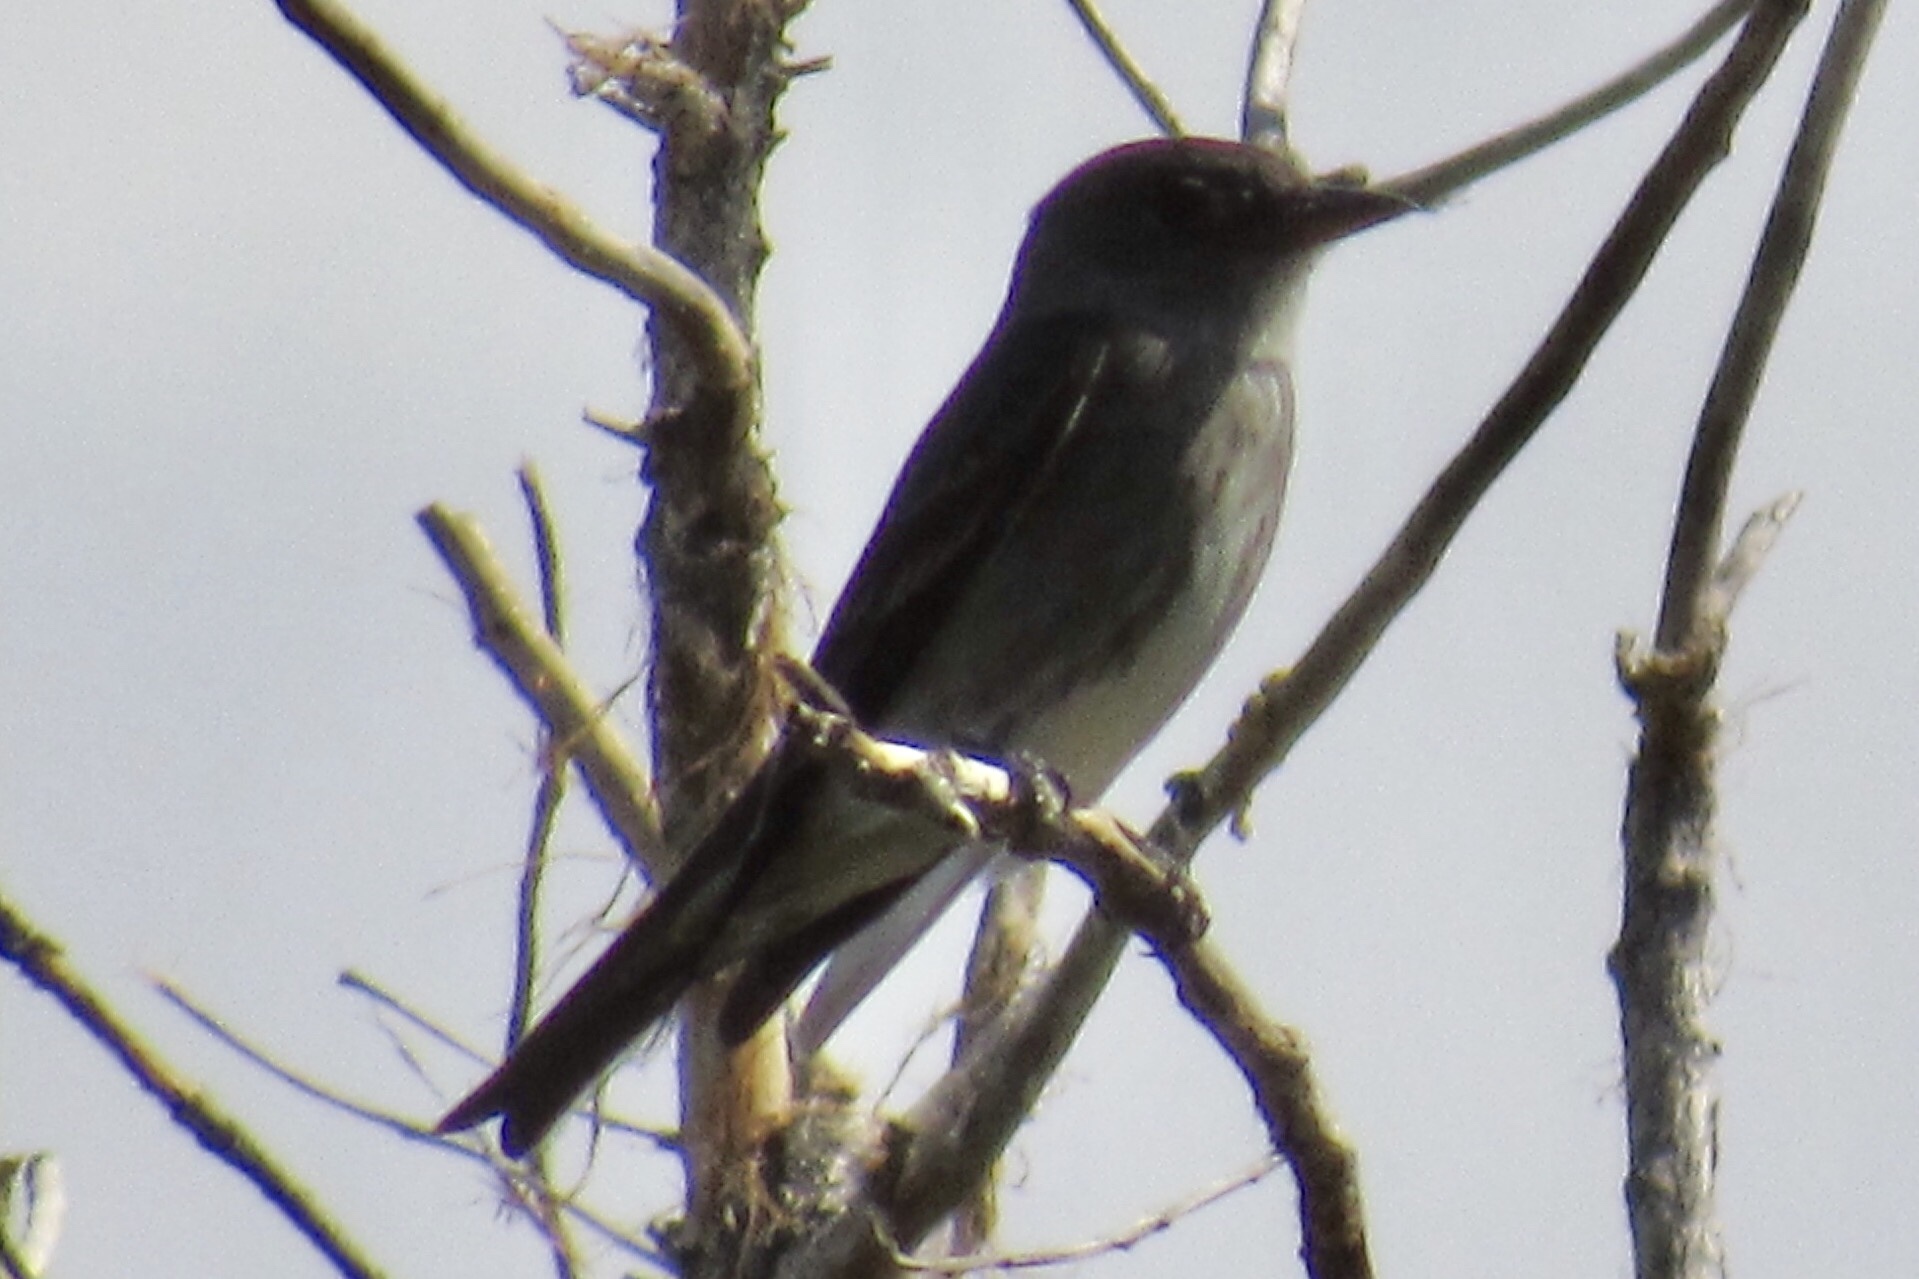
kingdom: Animalia
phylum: Chordata
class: Aves
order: Passeriformes
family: Tyrannidae
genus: Contopus
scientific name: Contopus cooperi
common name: Olive-sided flycatcher
